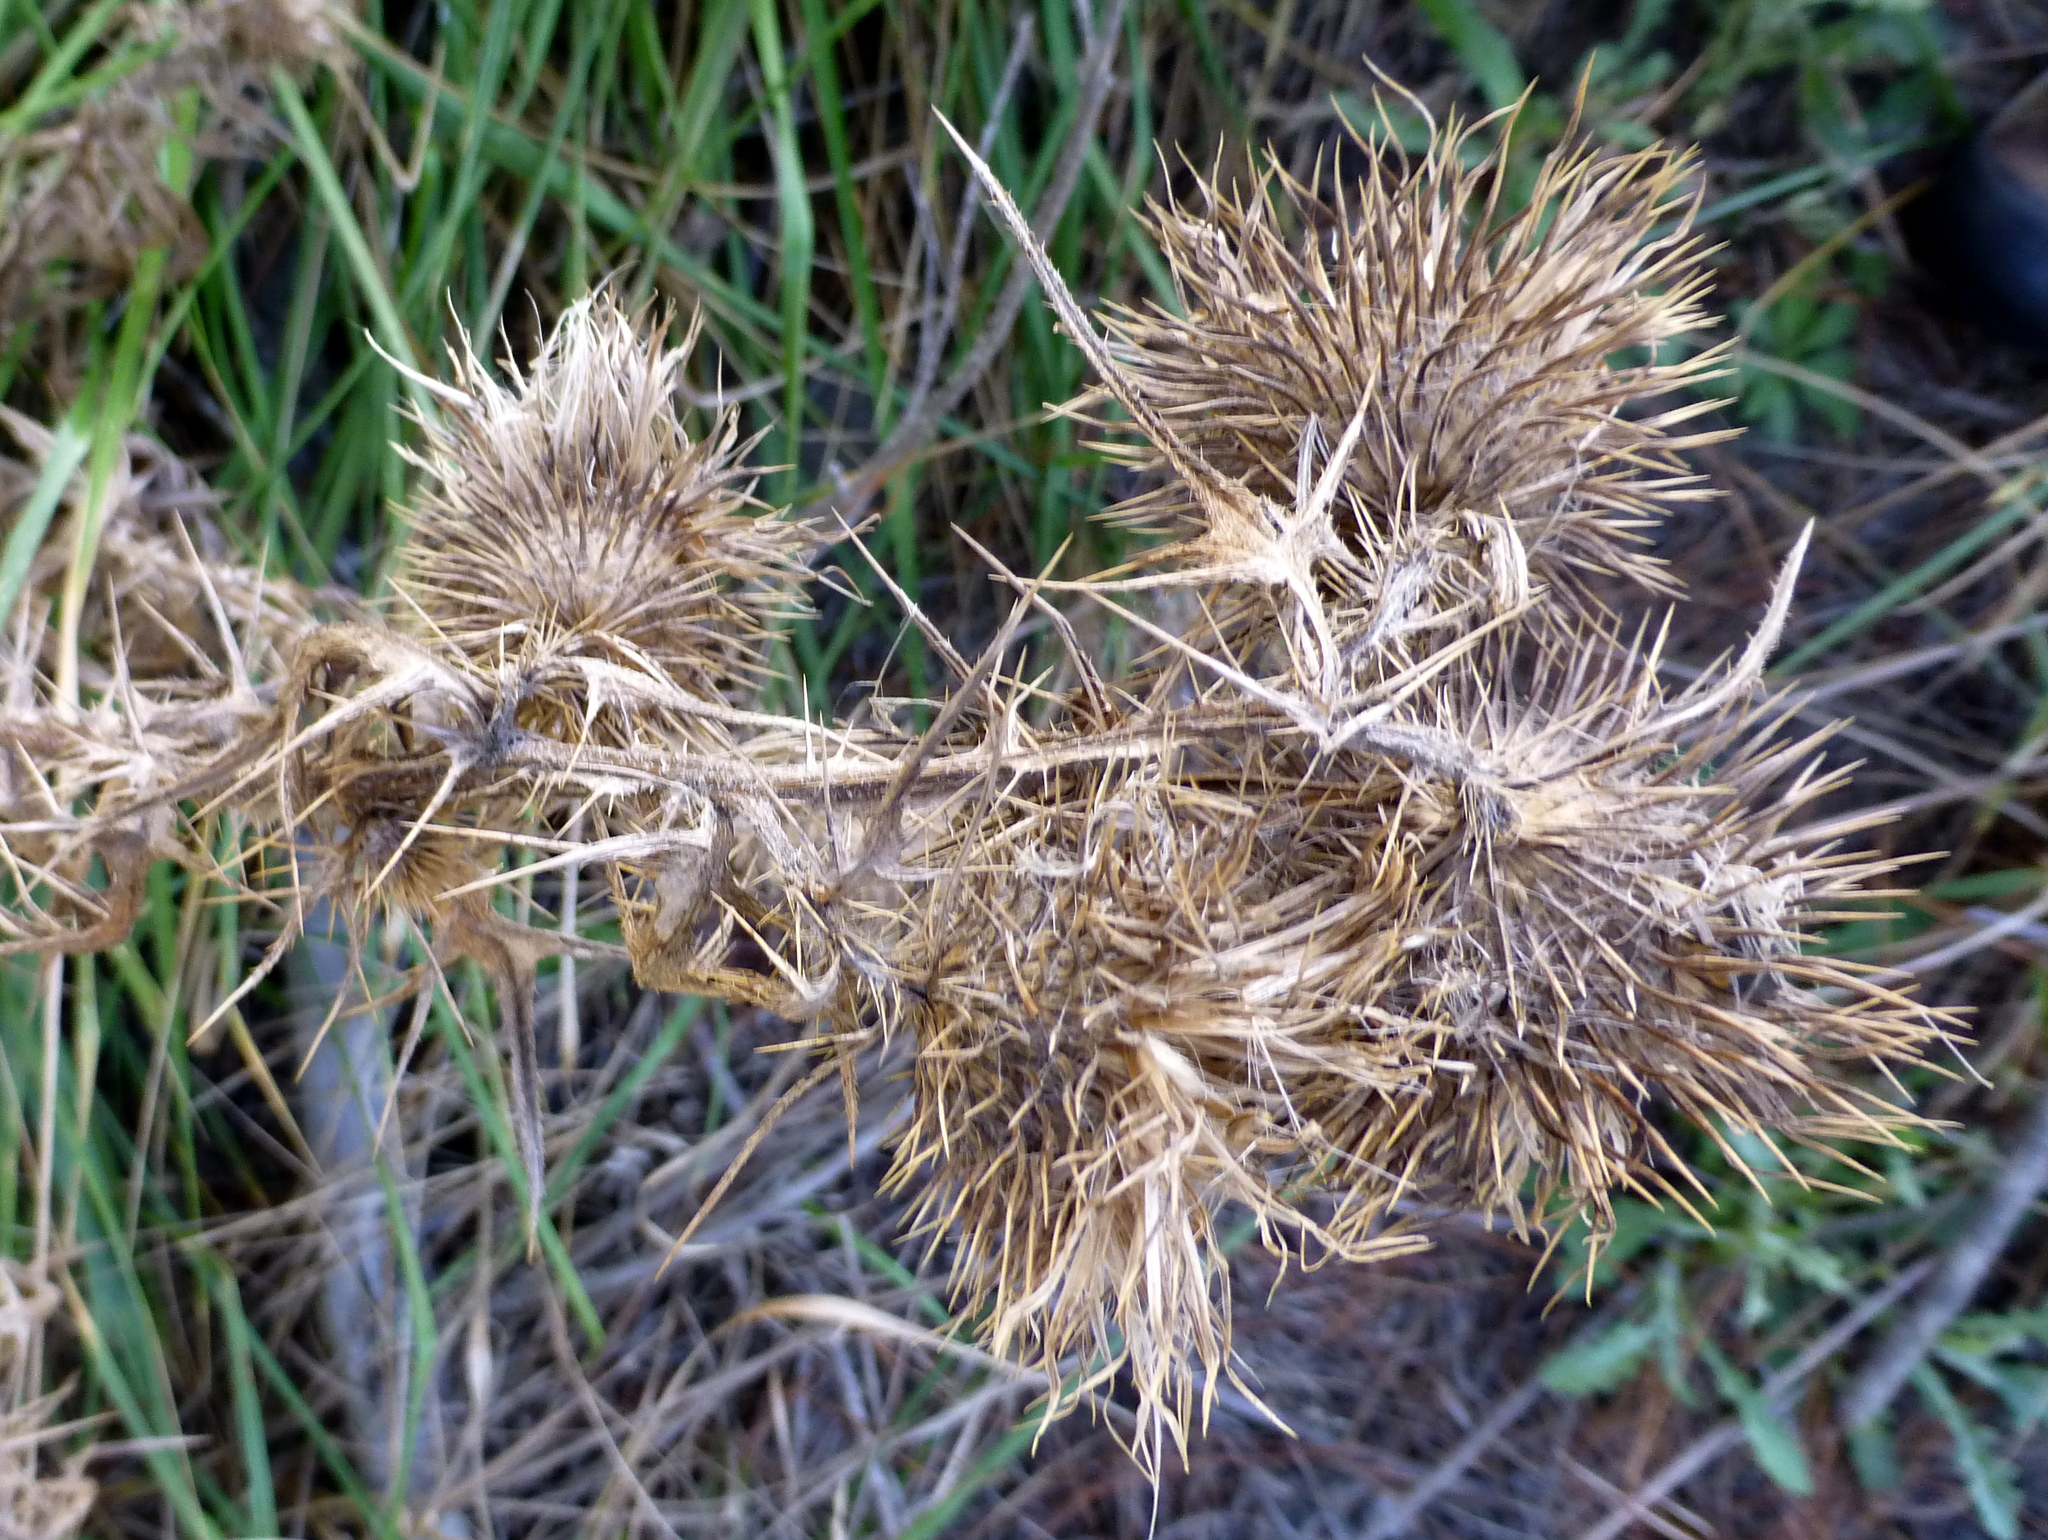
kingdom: Plantae
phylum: Tracheophyta
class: Magnoliopsida
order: Asterales
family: Asteraceae
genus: Cirsium
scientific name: Cirsium vulgare
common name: Bull thistle
